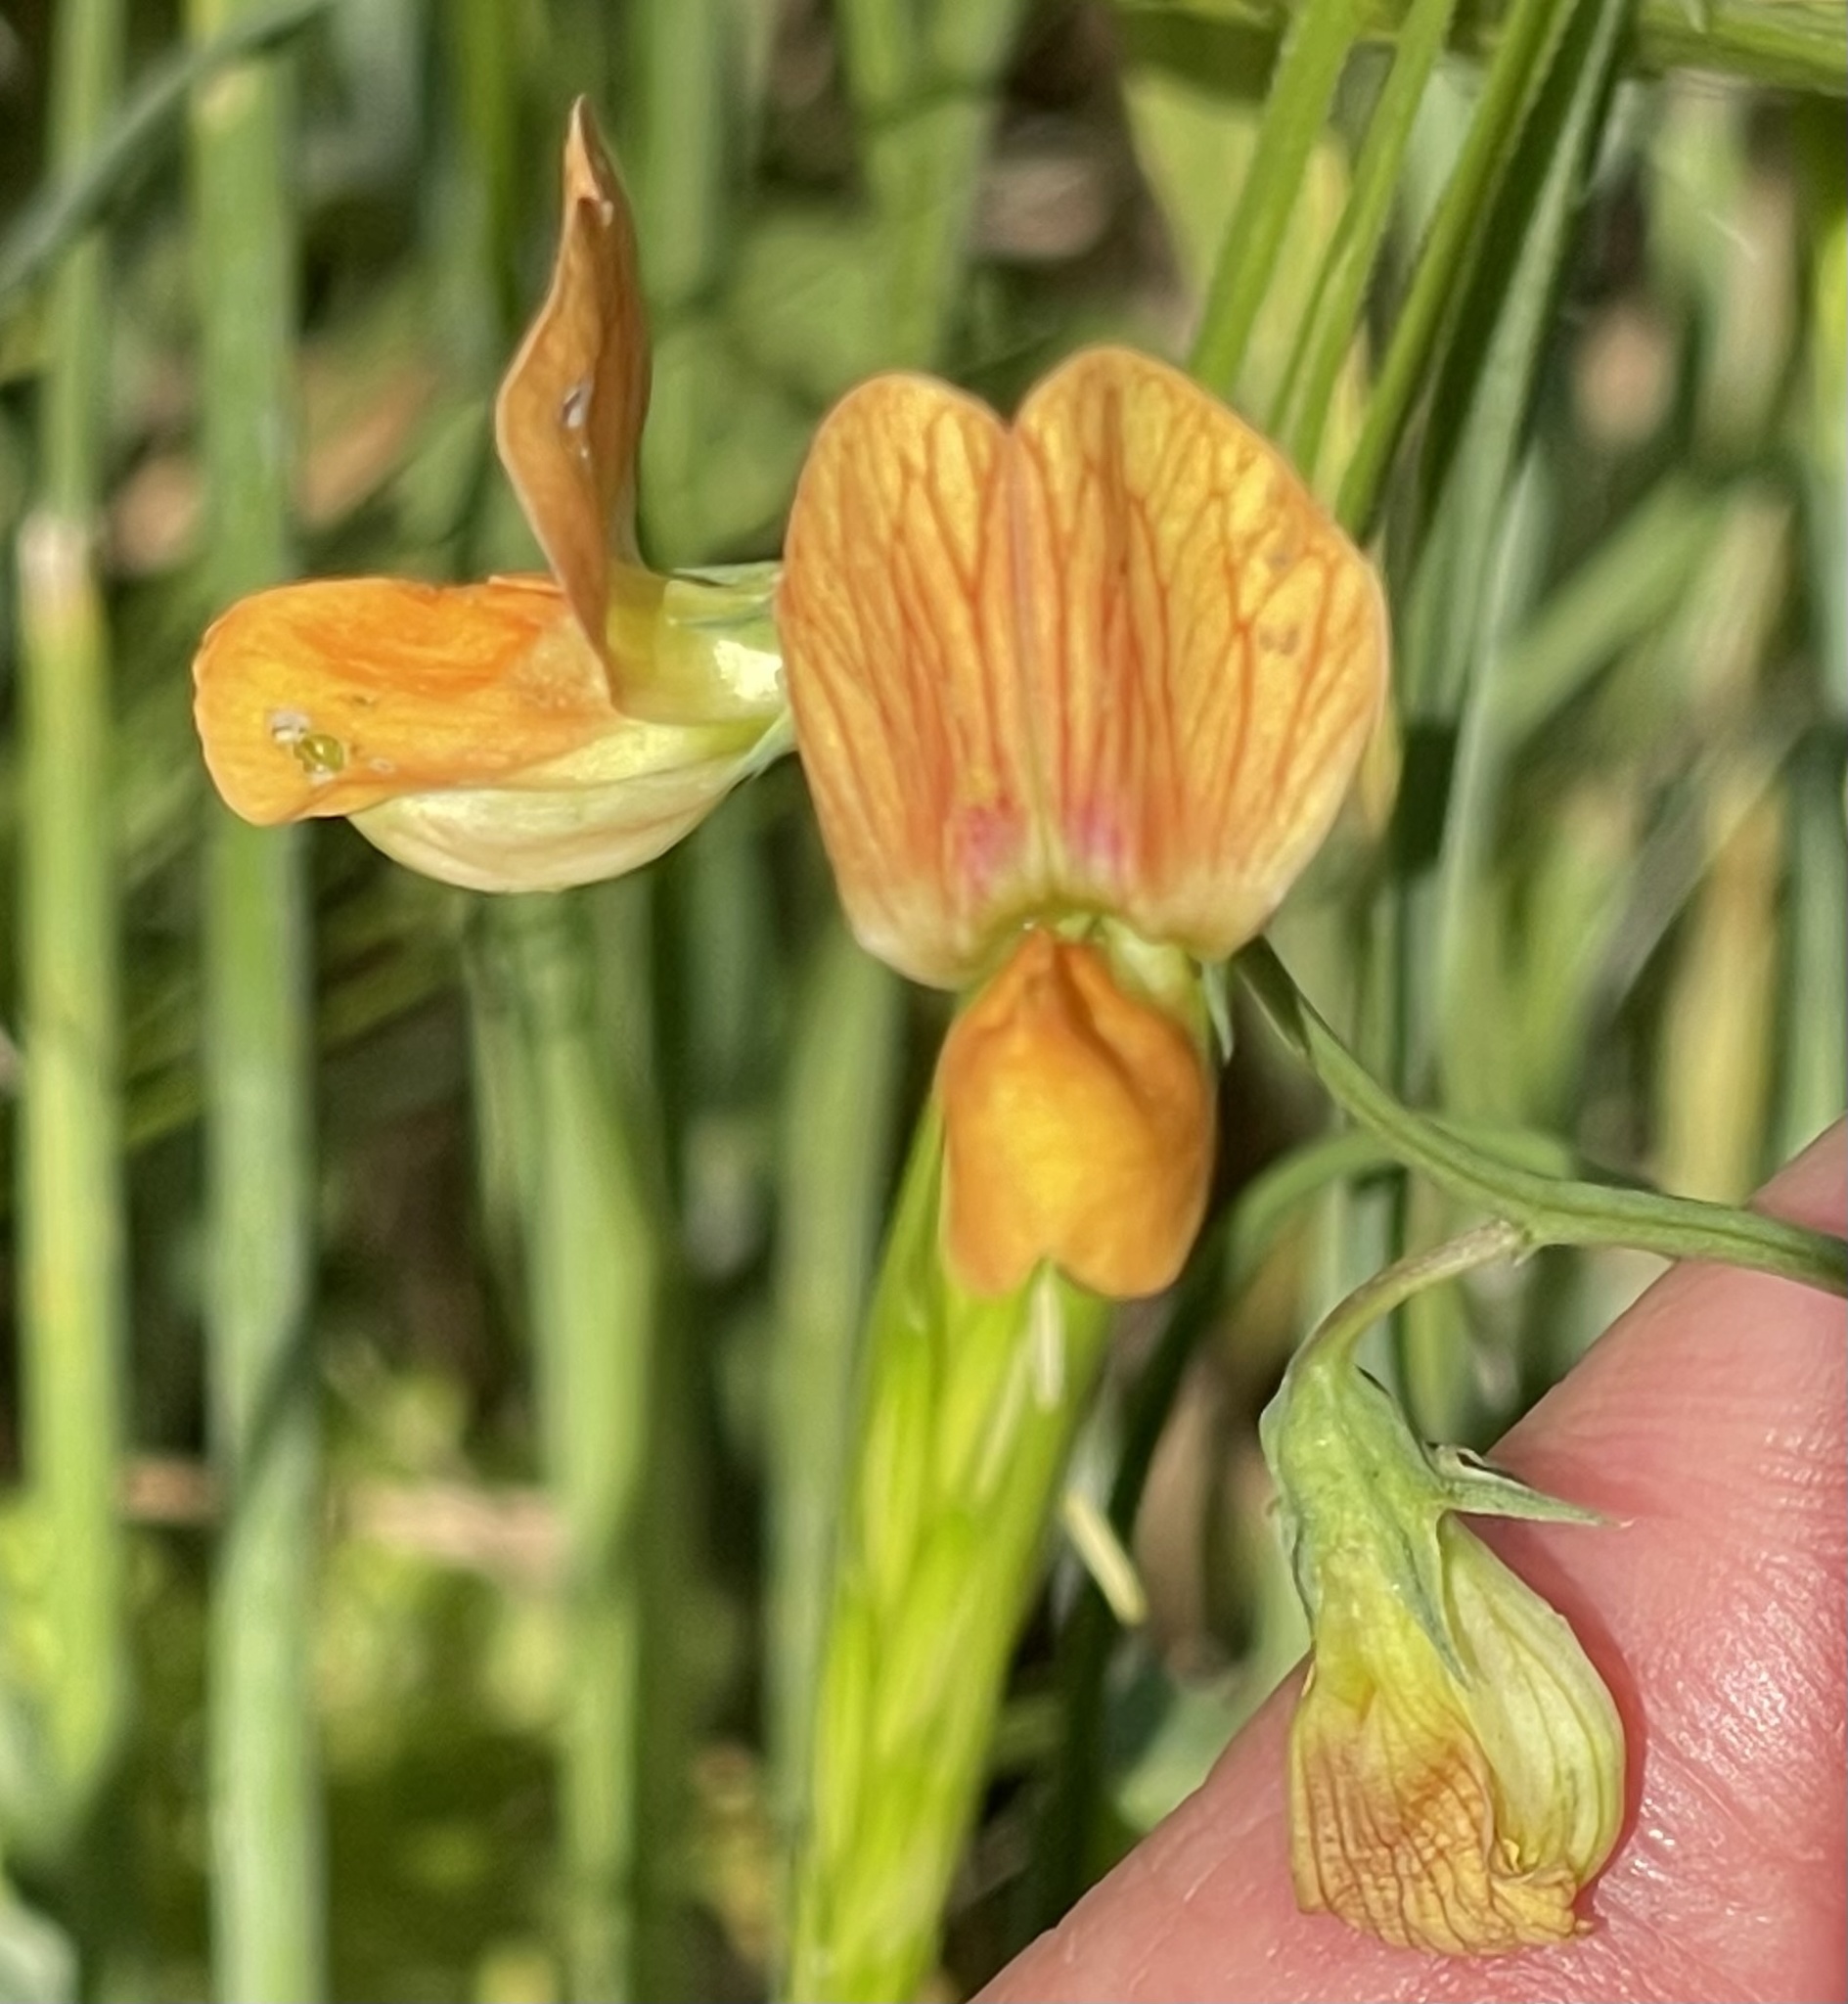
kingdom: Plantae
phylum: Tracheophyta
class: Magnoliopsida
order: Fabales
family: Fabaceae
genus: Lathyrus
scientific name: Lathyrus hierosolymitanus
